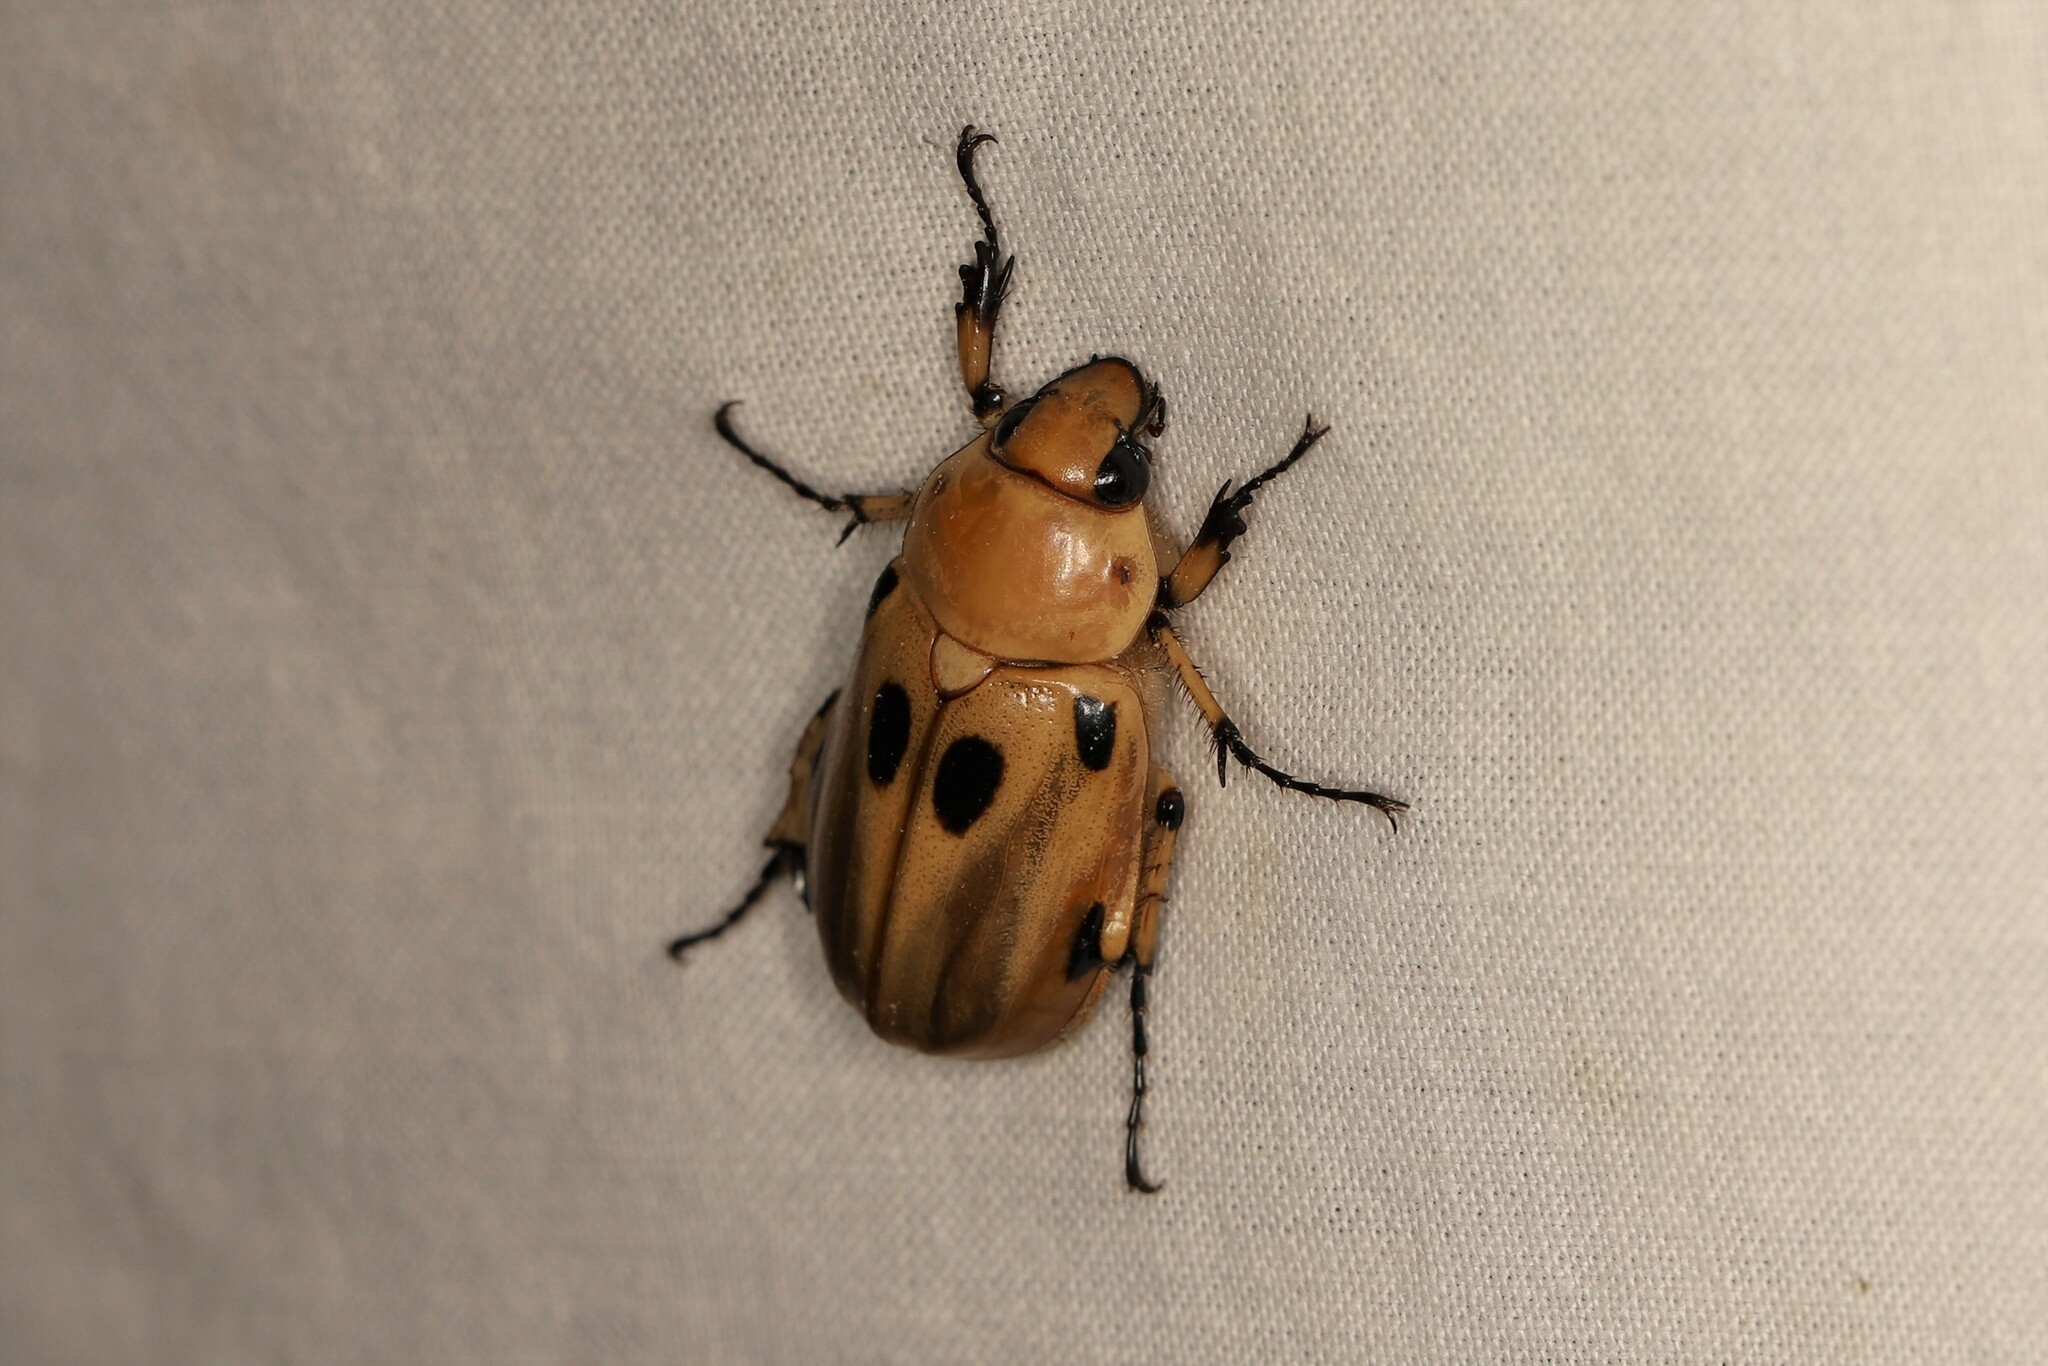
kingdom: Animalia
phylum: Arthropoda
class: Insecta
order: Coleoptera
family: Scarabaeidae
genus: Ancognatha
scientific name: Ancognatha vulgaris
